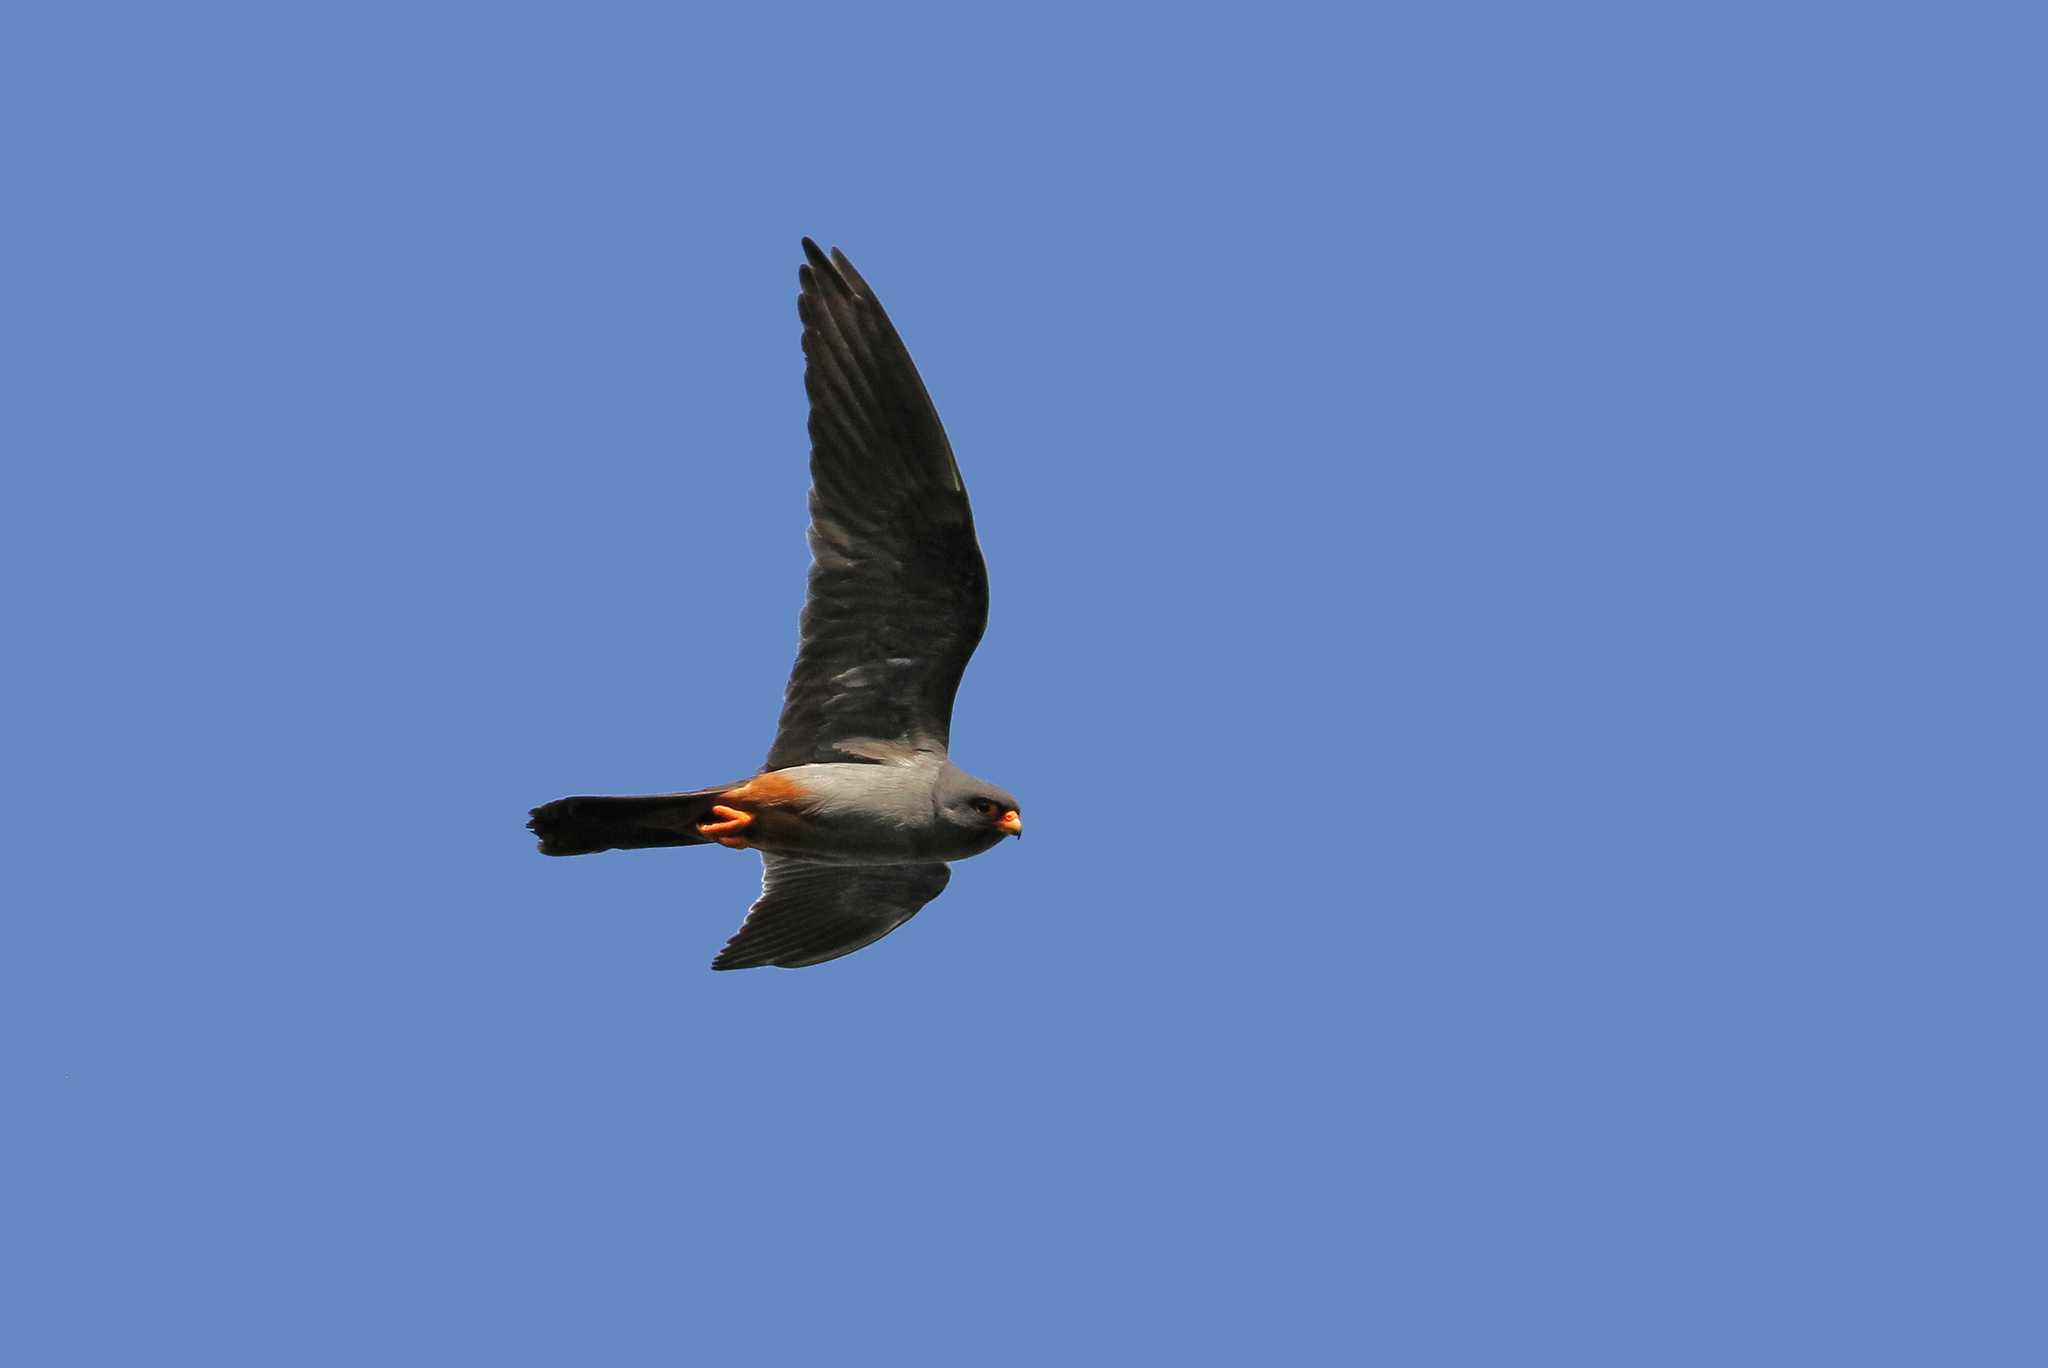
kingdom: Animalia
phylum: Chordata
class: Aves
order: Falconiformes
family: Falconidae
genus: Falco
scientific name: Falco vespertinus
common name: Red-footed falcon
